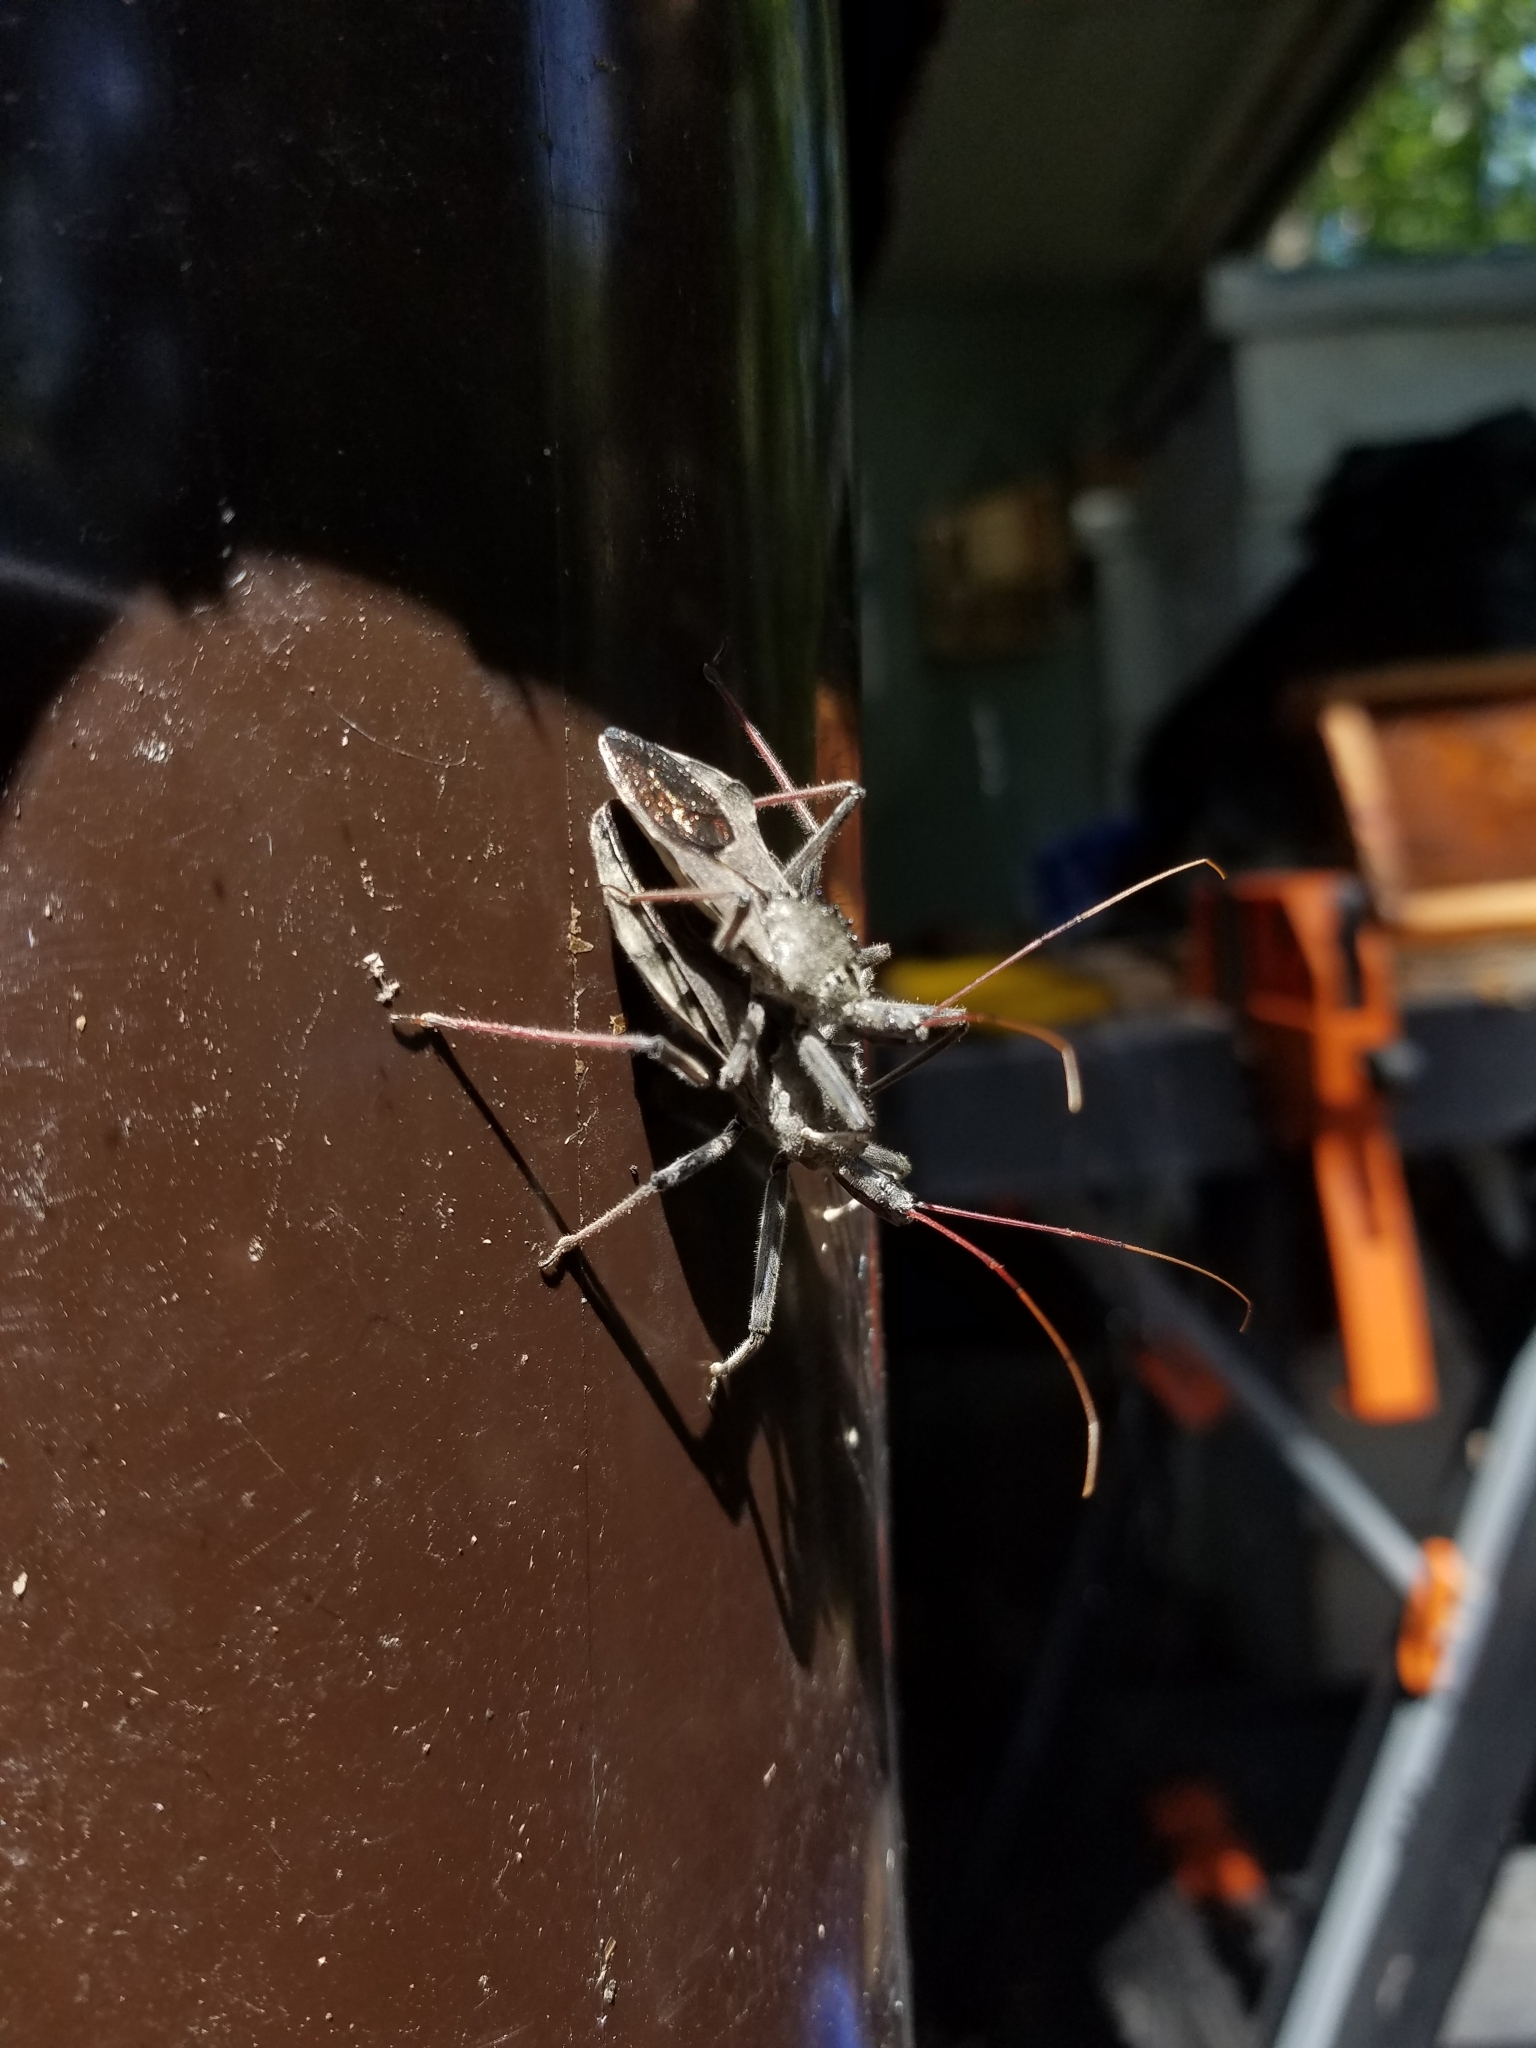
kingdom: Animalia
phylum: Arthropoda
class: Insecta
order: Hemiptera
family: Reduviidae
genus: Arilus
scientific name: Arilus cristatus
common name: North american wheel bug
